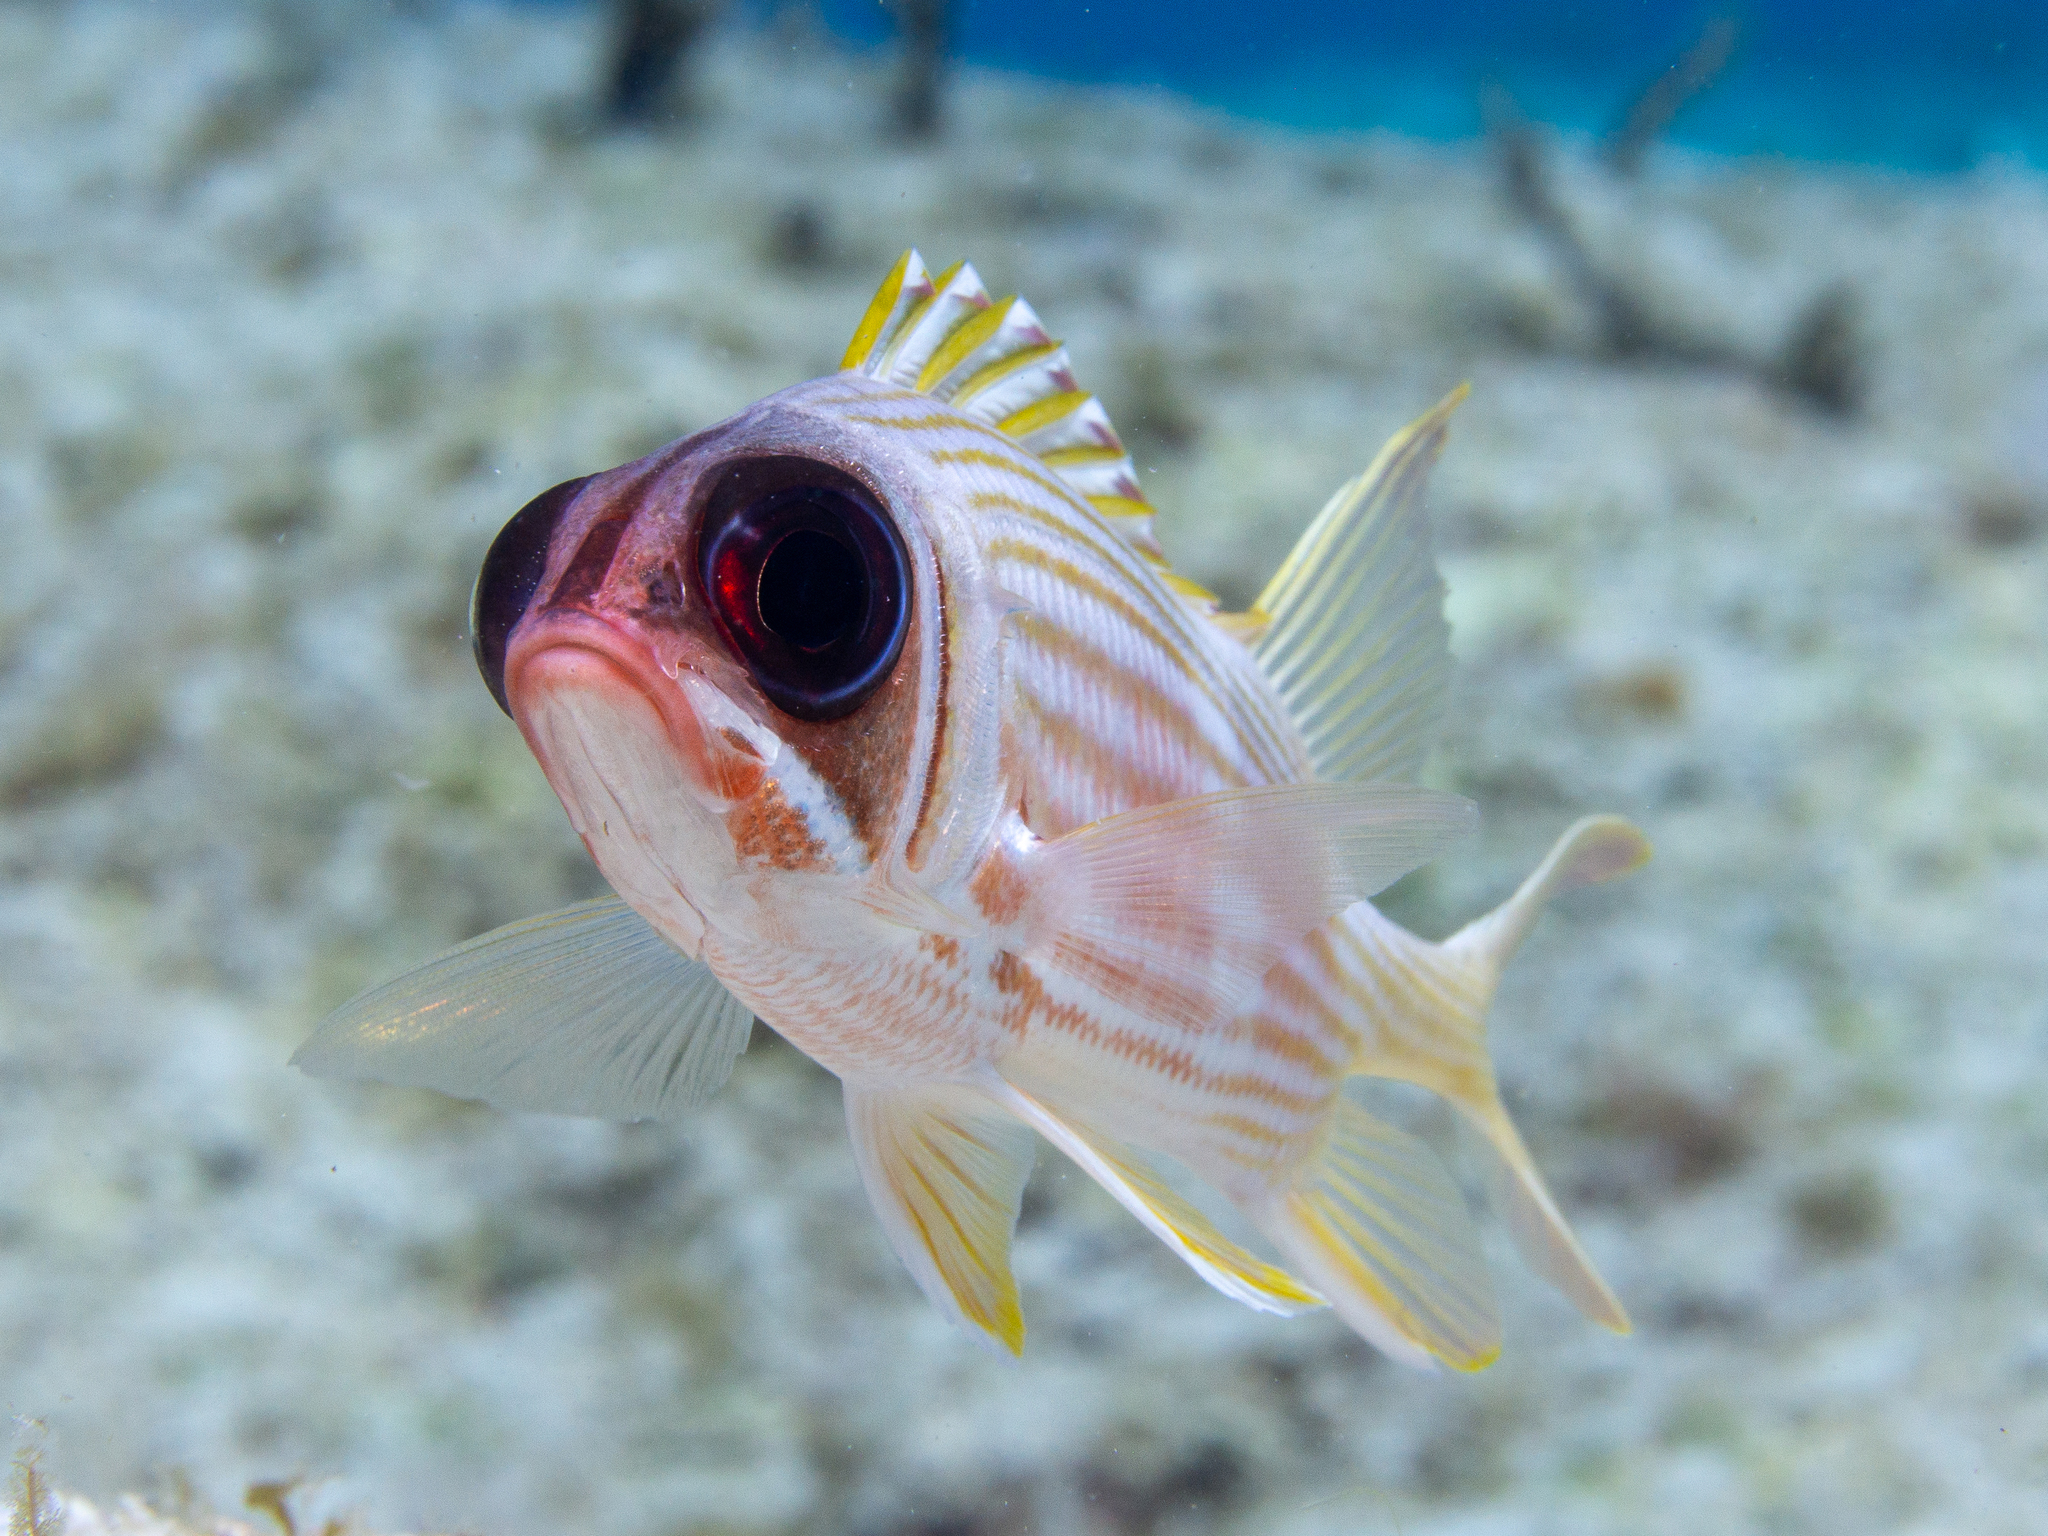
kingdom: Animalia
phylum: Chordata
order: Beryciformes
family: Holocentridae
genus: Holocentrus
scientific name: Holocentrus rufus
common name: Longspine squirrelfish
